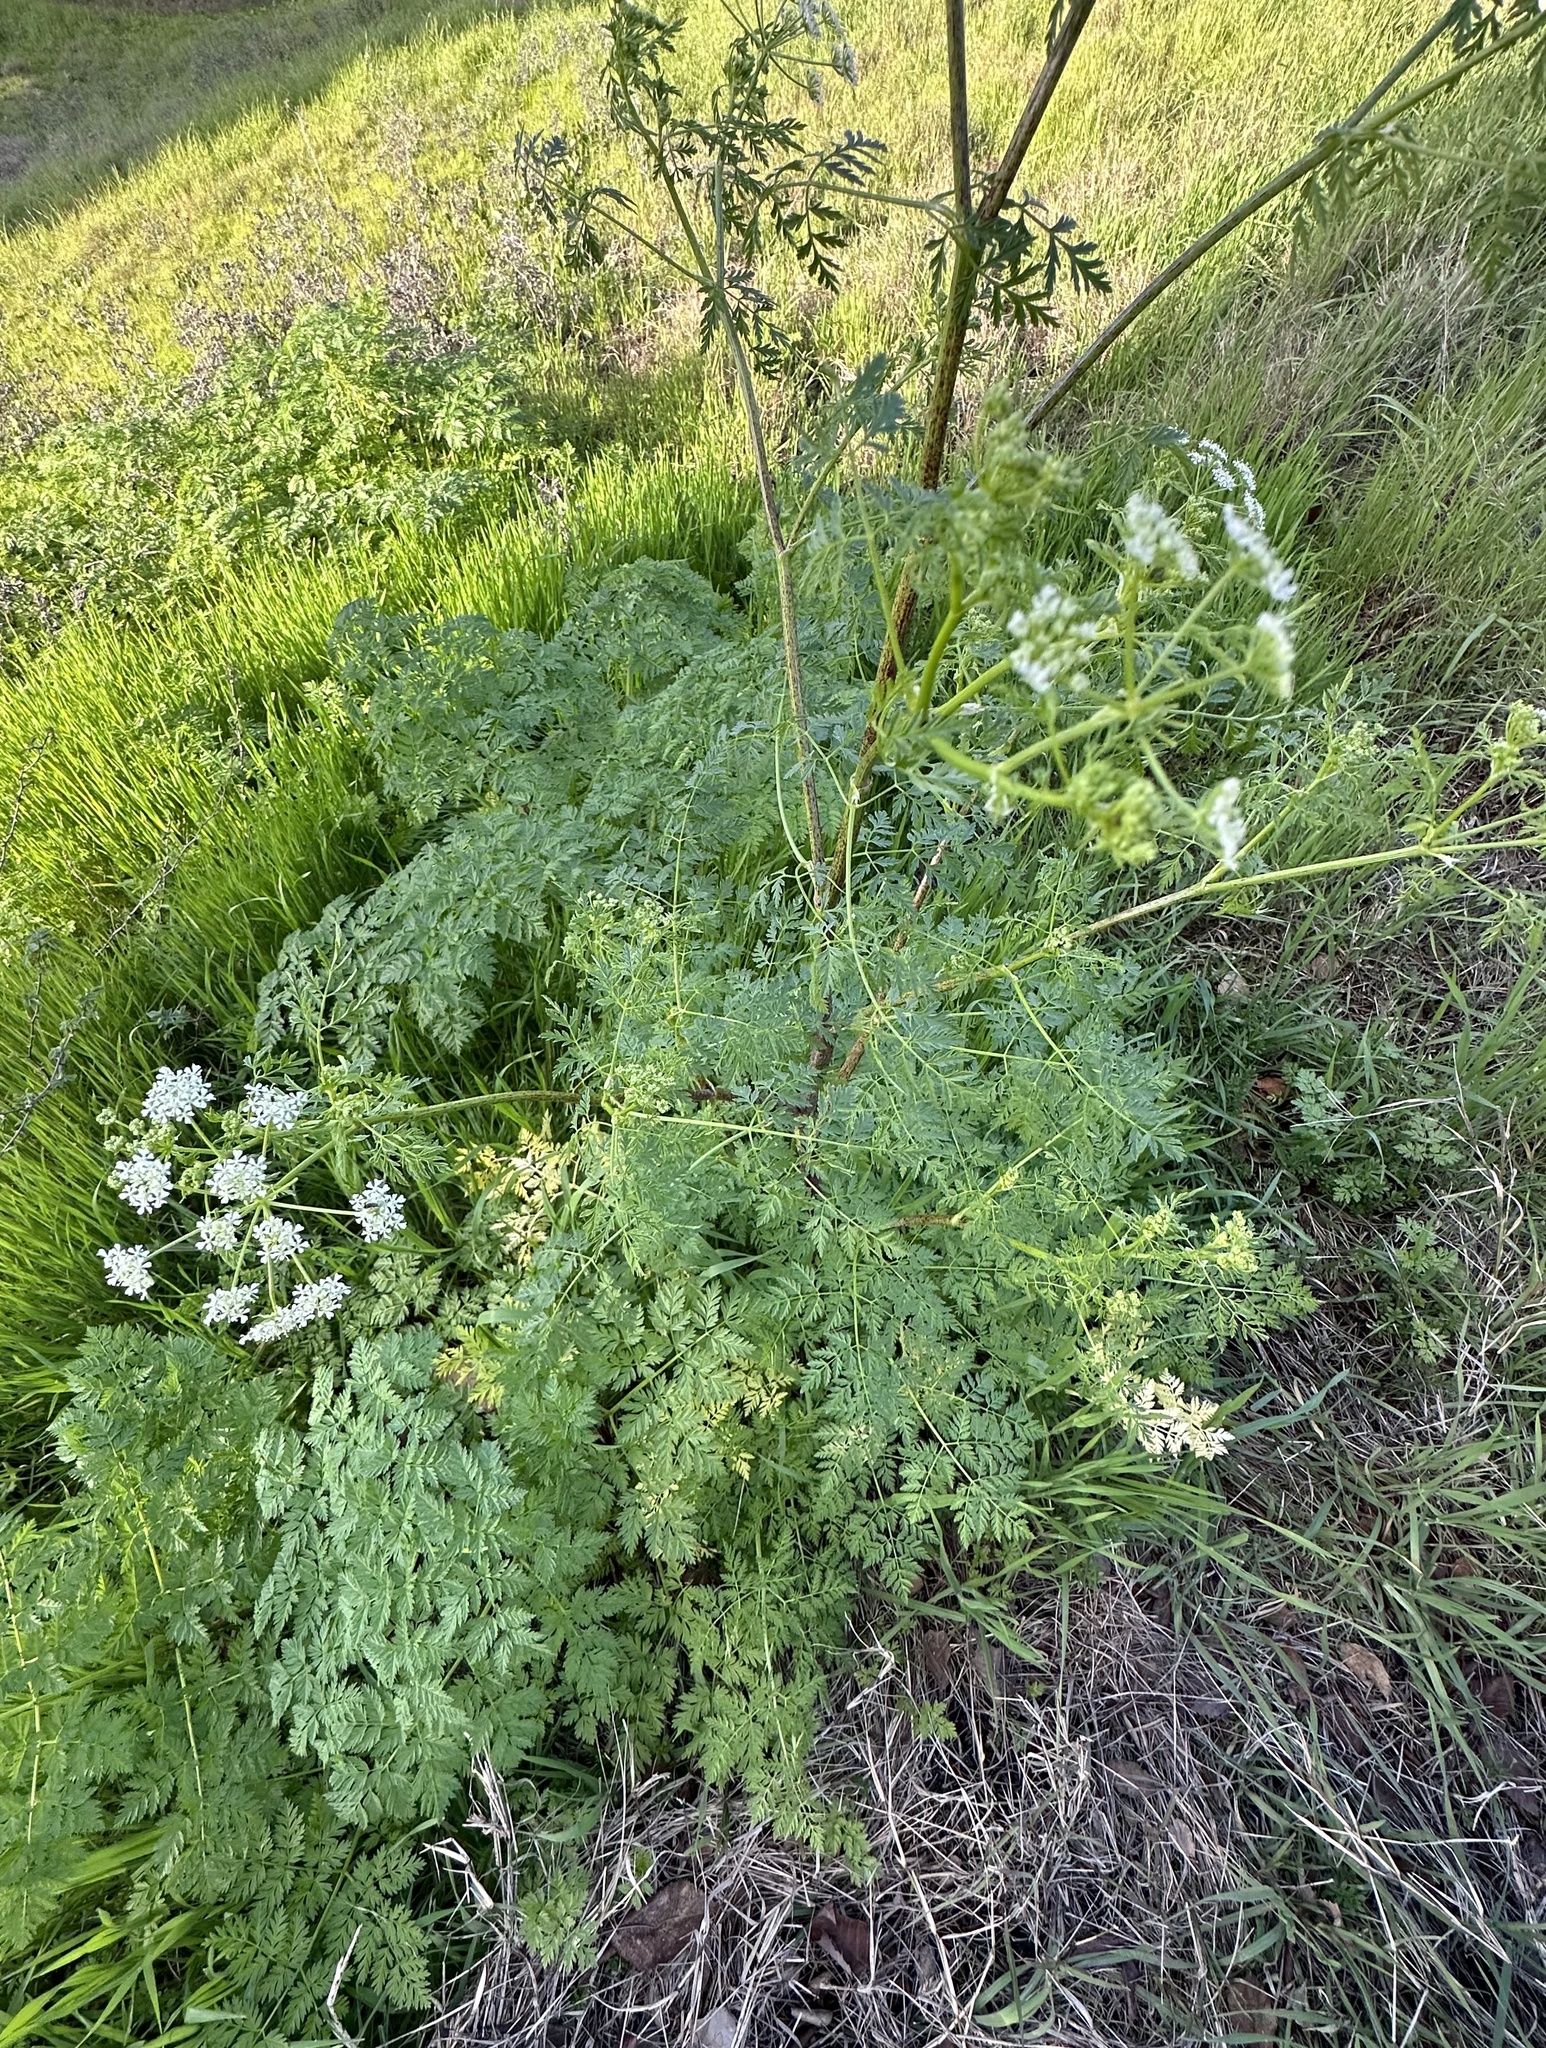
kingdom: Plantae
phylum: Tracheophyta
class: Magnoliopsida
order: Apiales
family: Apiaceae
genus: Conium
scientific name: Conium maculatum
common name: Hemlock
